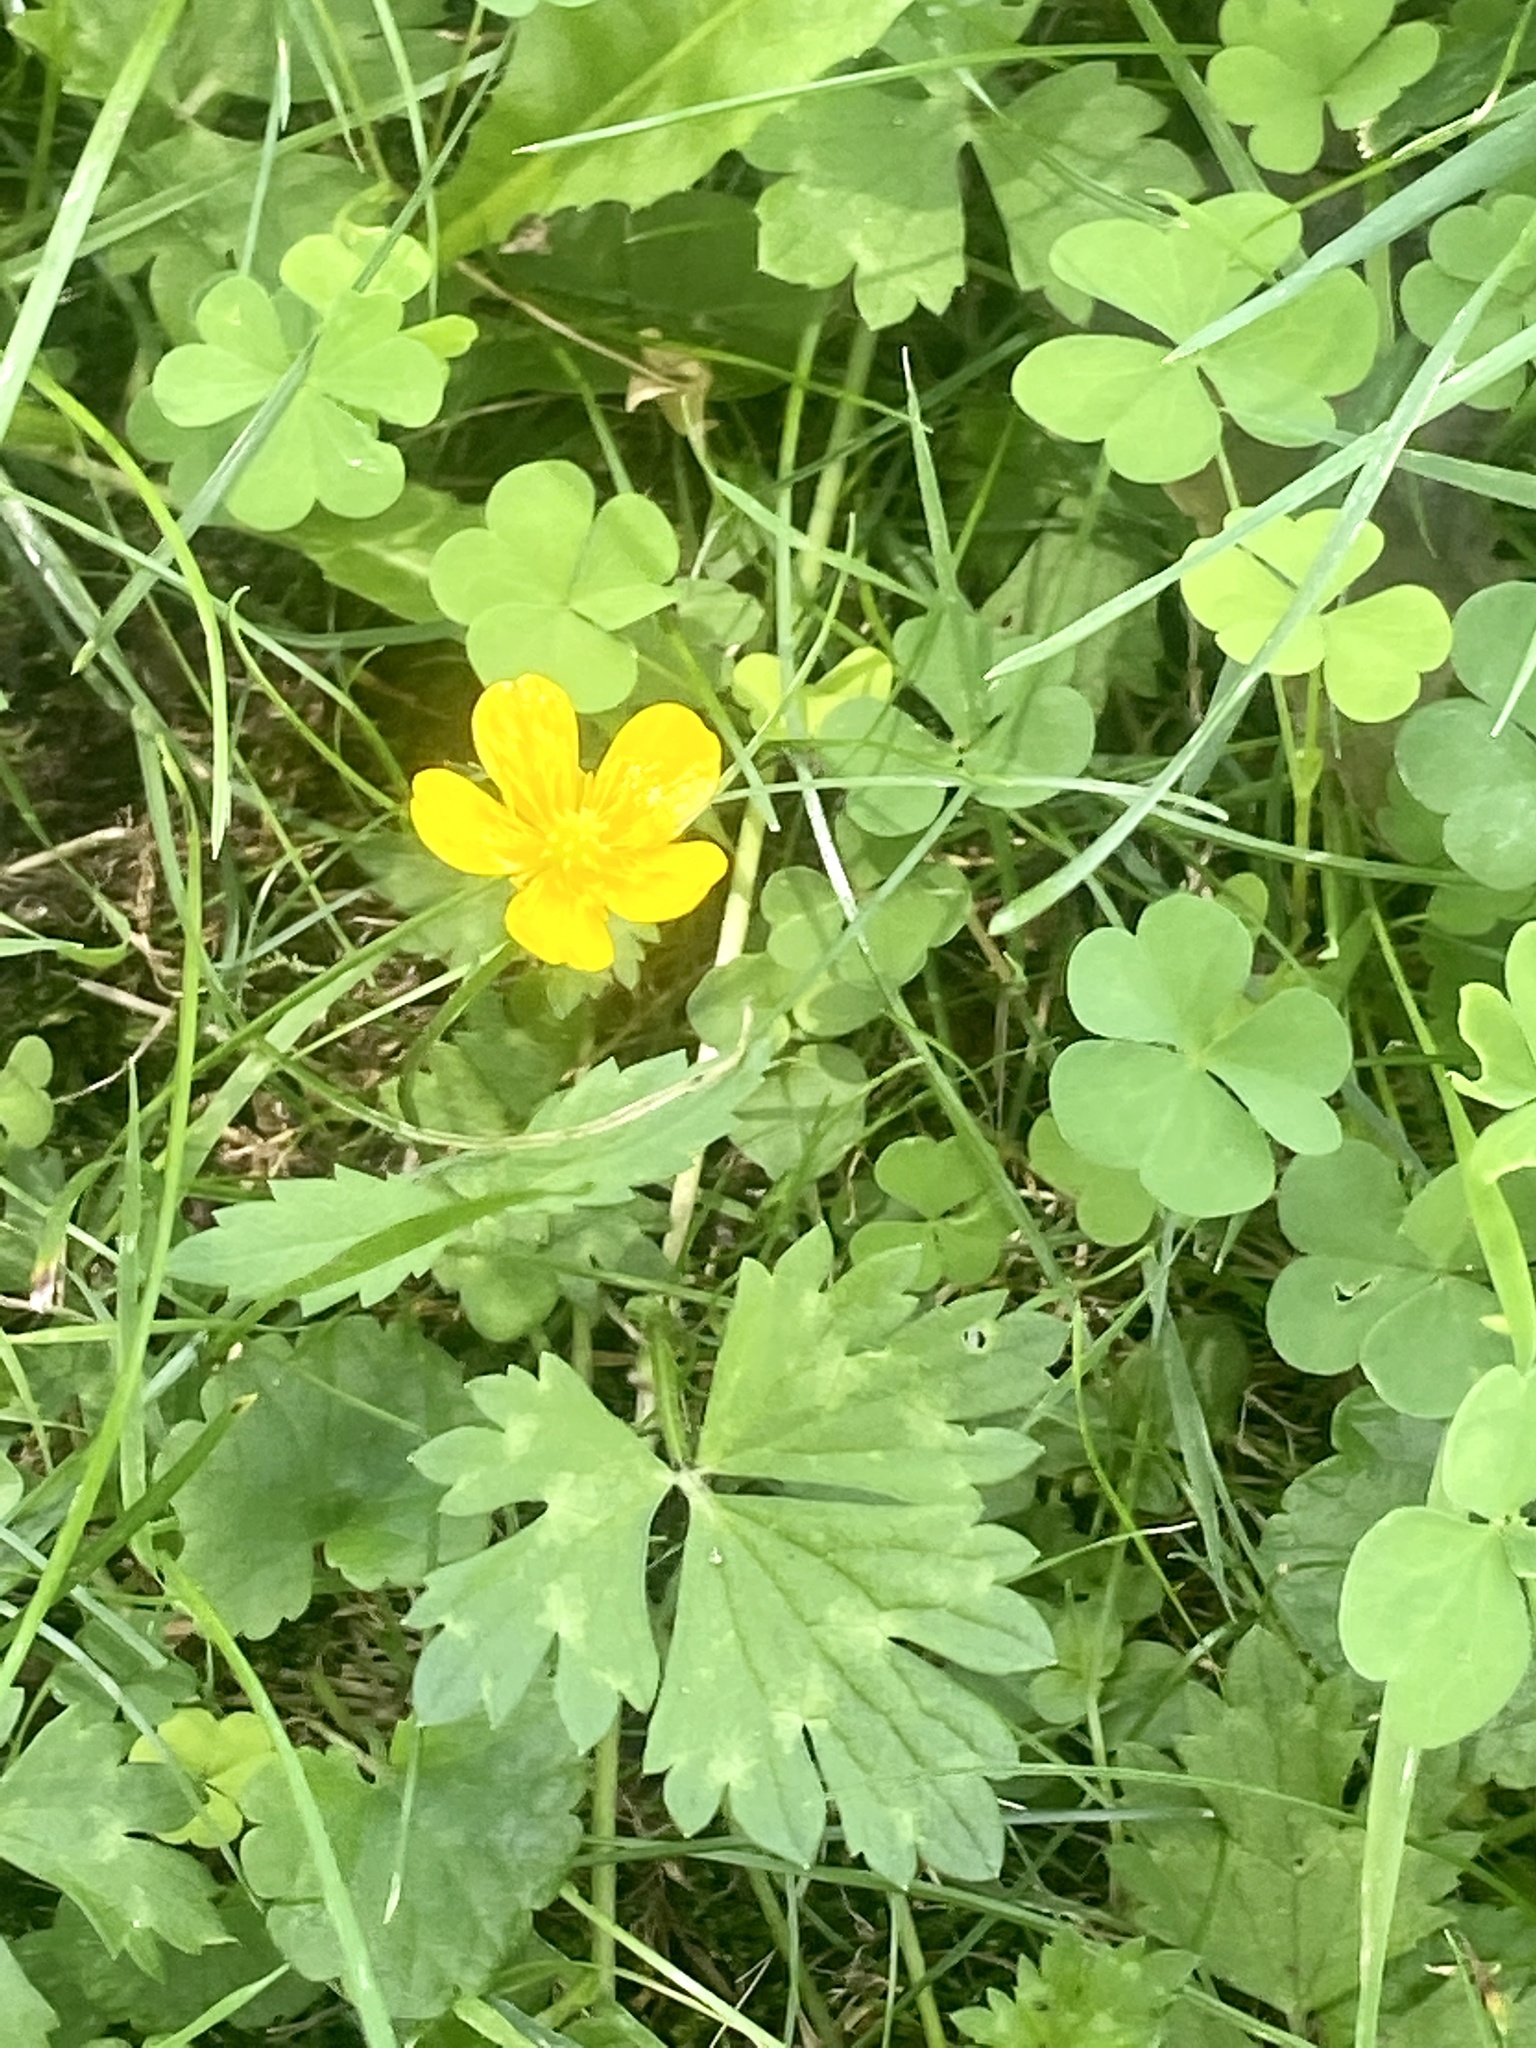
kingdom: Plantae
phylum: Tracheophyta
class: Magnoliopsida
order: Ranunculales
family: Ranunculaceae
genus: Ranunculus
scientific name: Ranunculus repens
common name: Creeping buttercup
